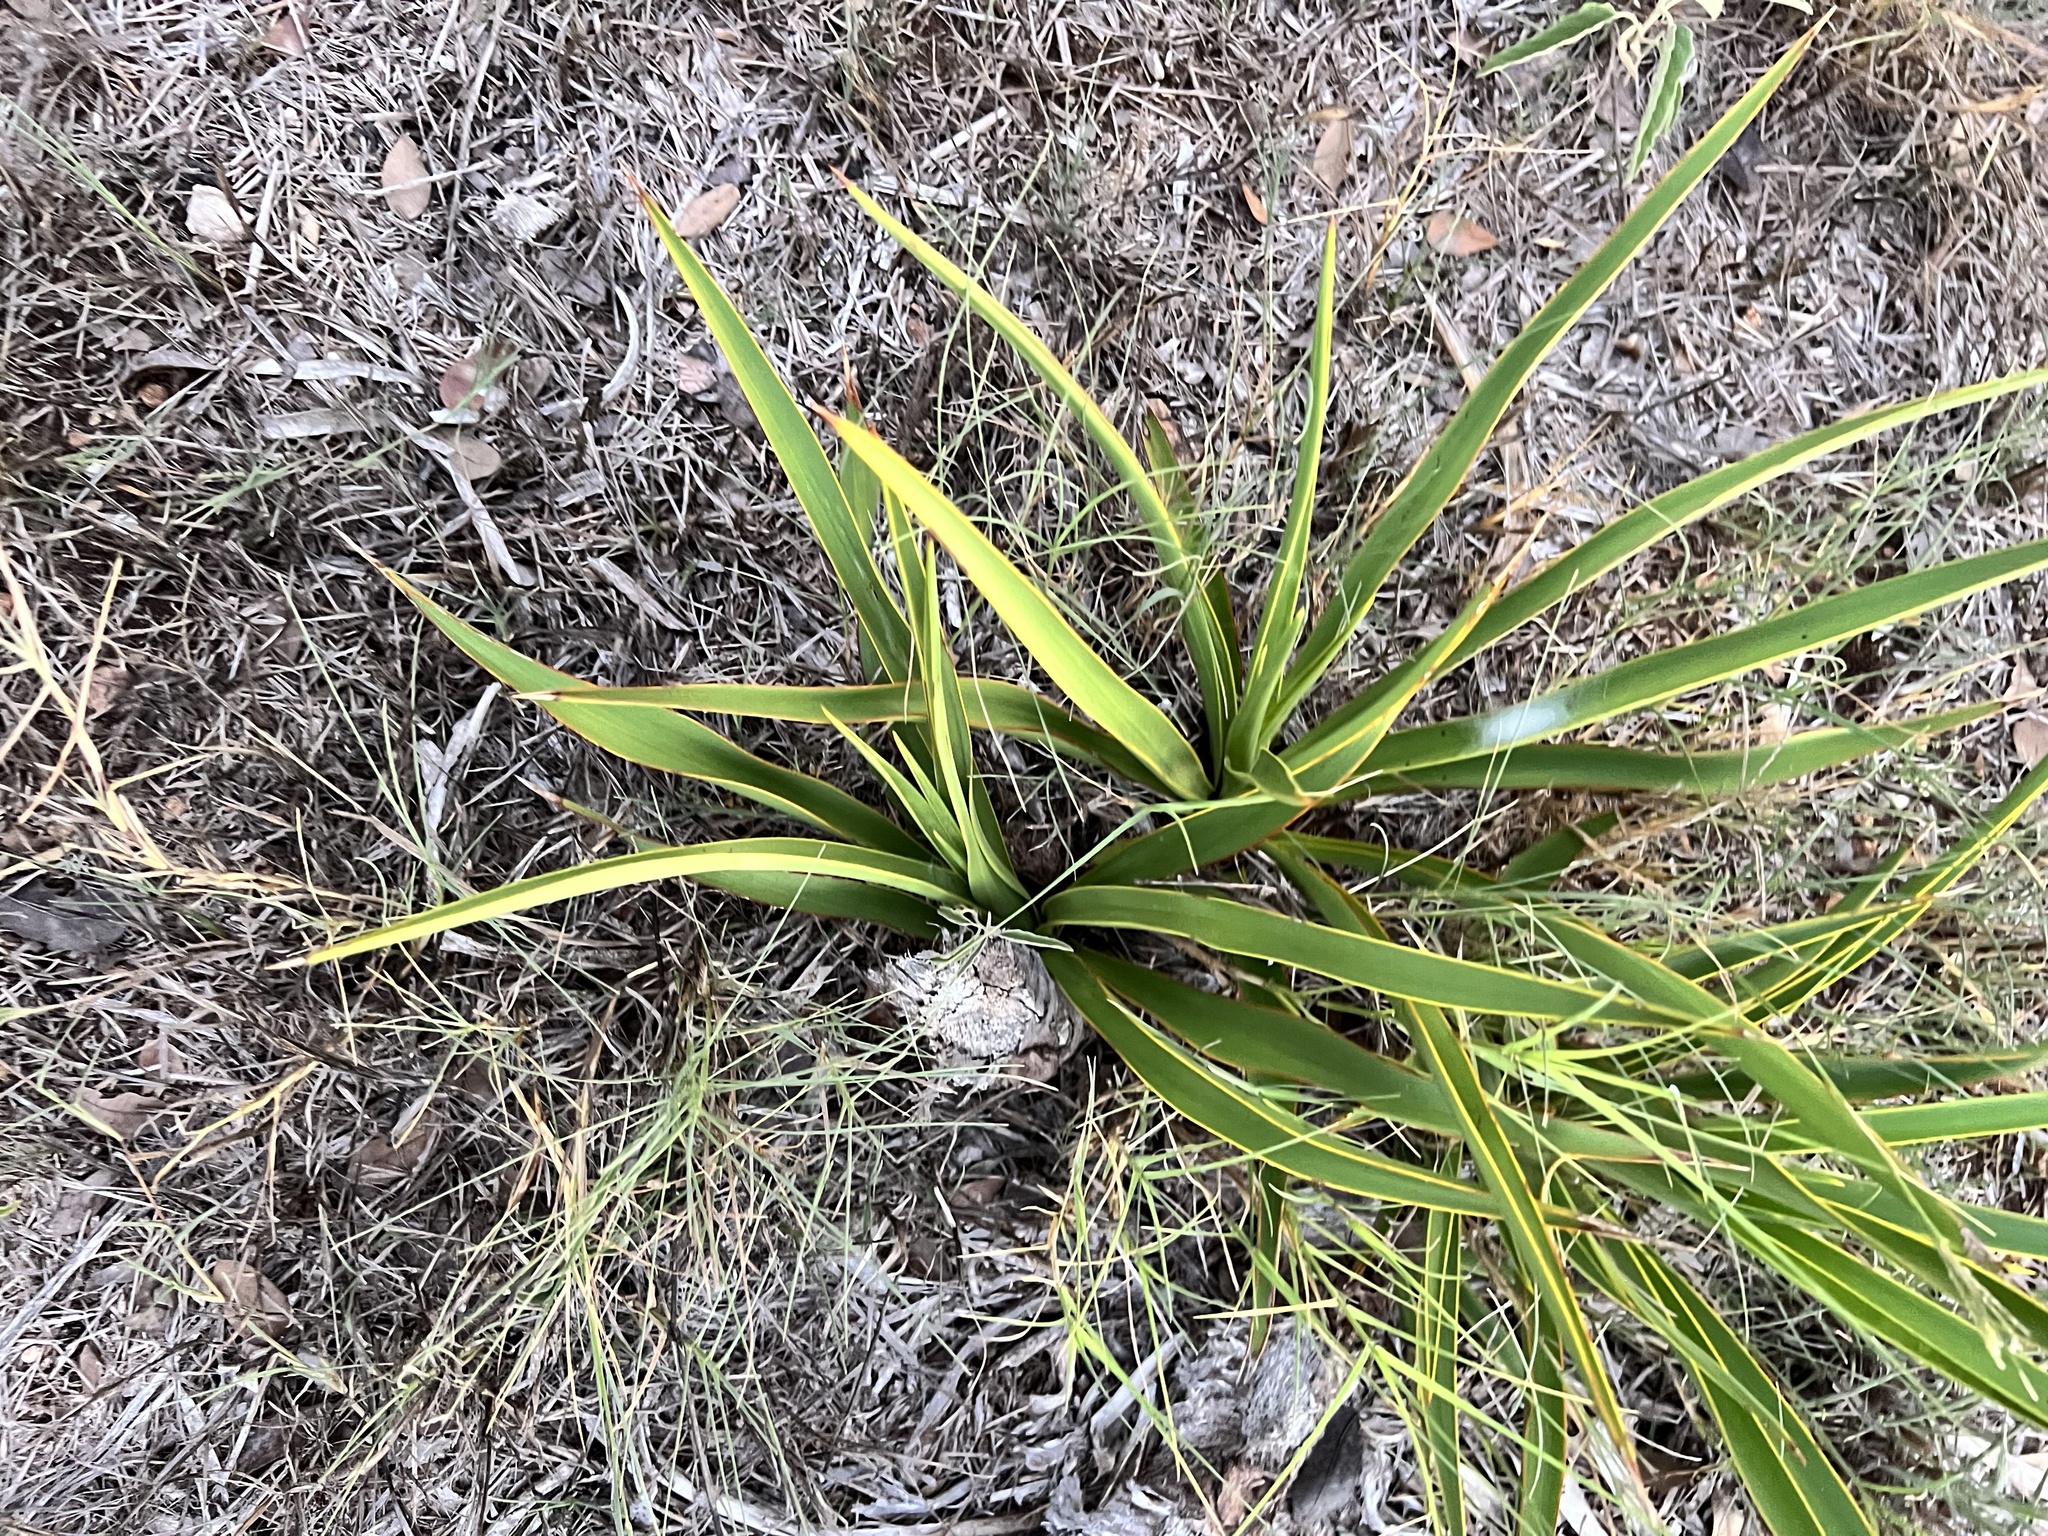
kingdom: Plantae
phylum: Tracheophyta
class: Liliopsida
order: Asparagales
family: Asparagaceae
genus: Yucca
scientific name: Yucca rupicola
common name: Twisted-leaf spanish-dagger
